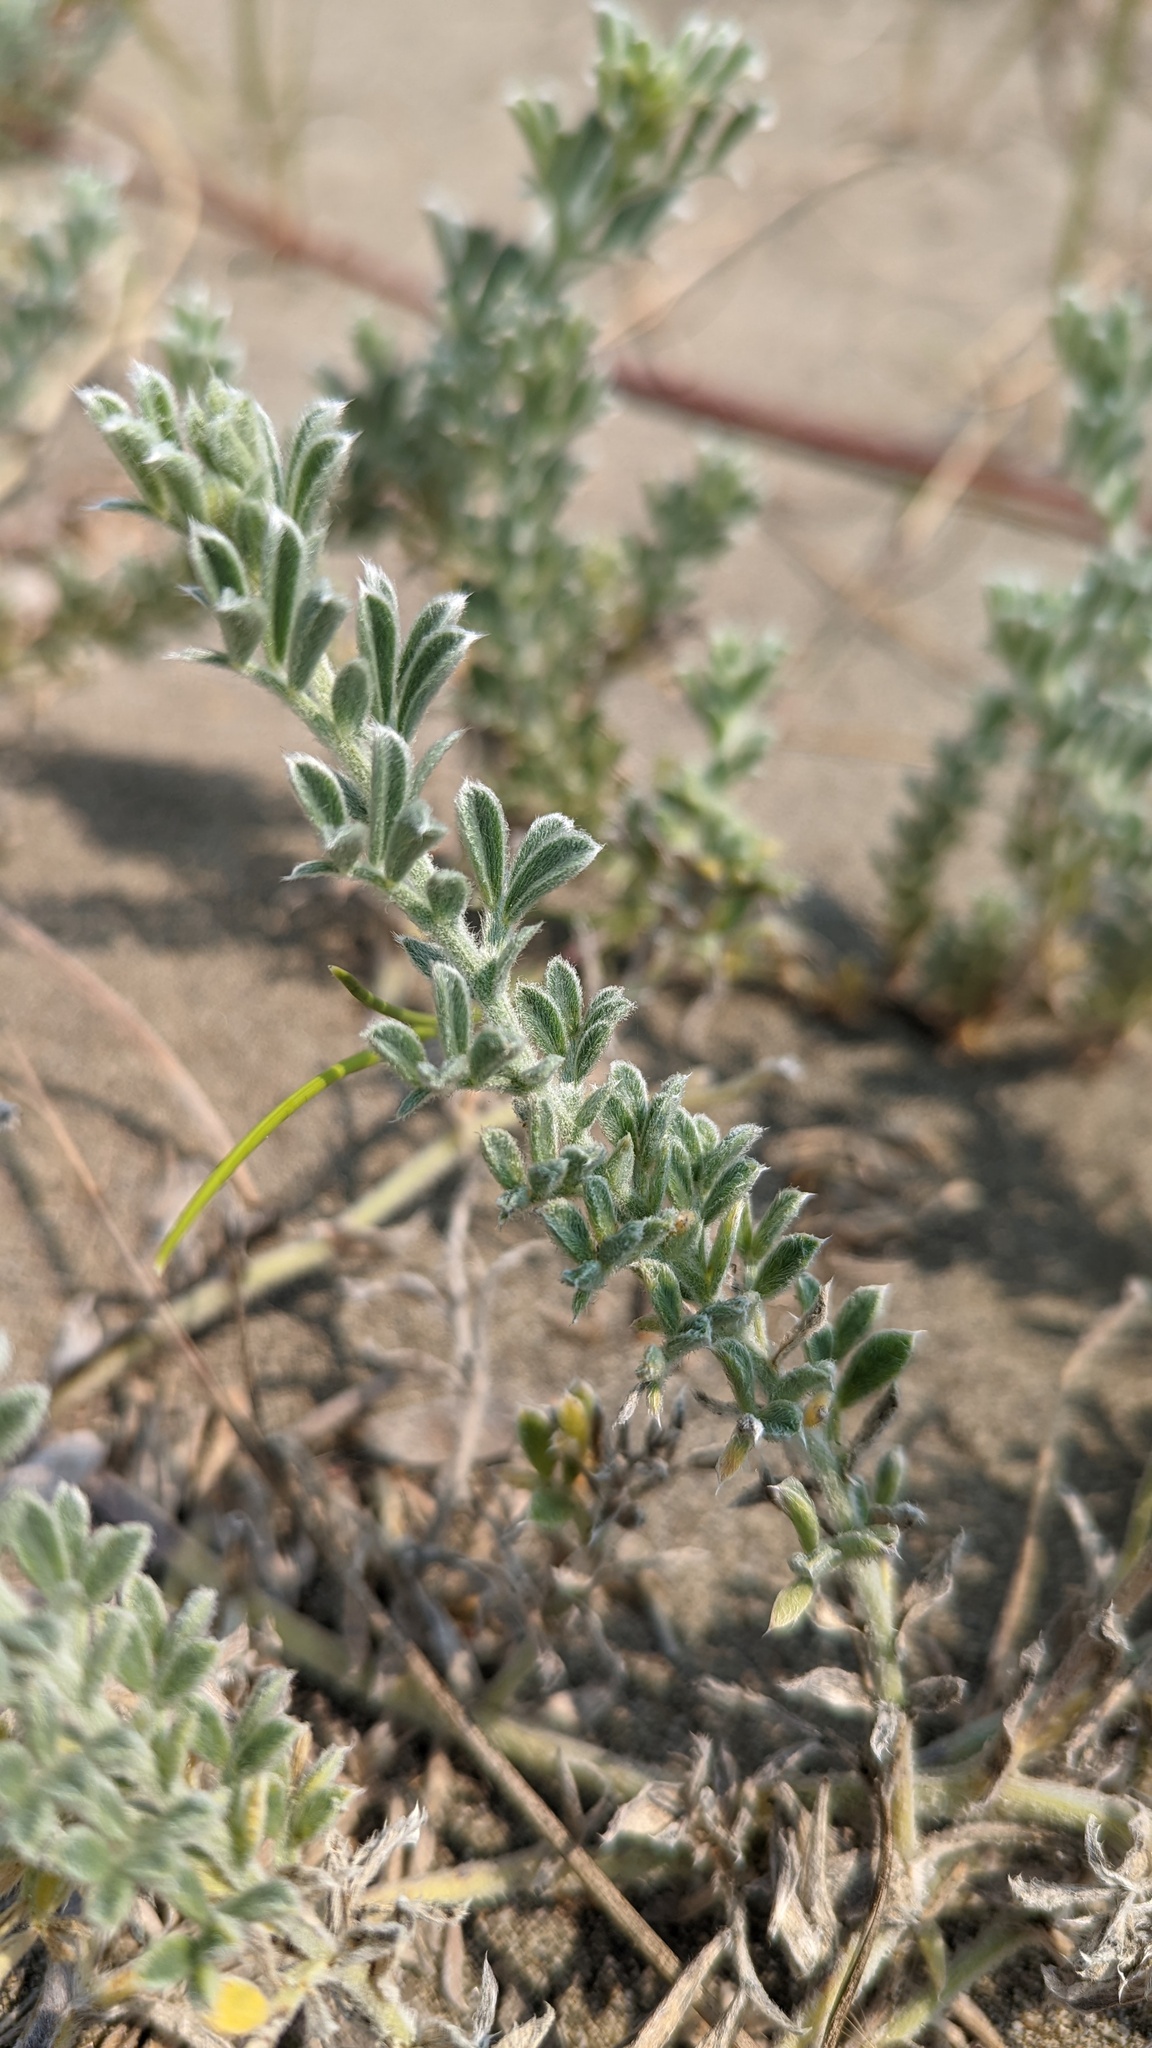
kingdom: Plantae
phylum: Tracheophyta
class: Magnoliopsida
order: Fabales
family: Fabaceae
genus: Lathyrus
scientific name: Lathyrus littoralis
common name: Dune sweet pea
